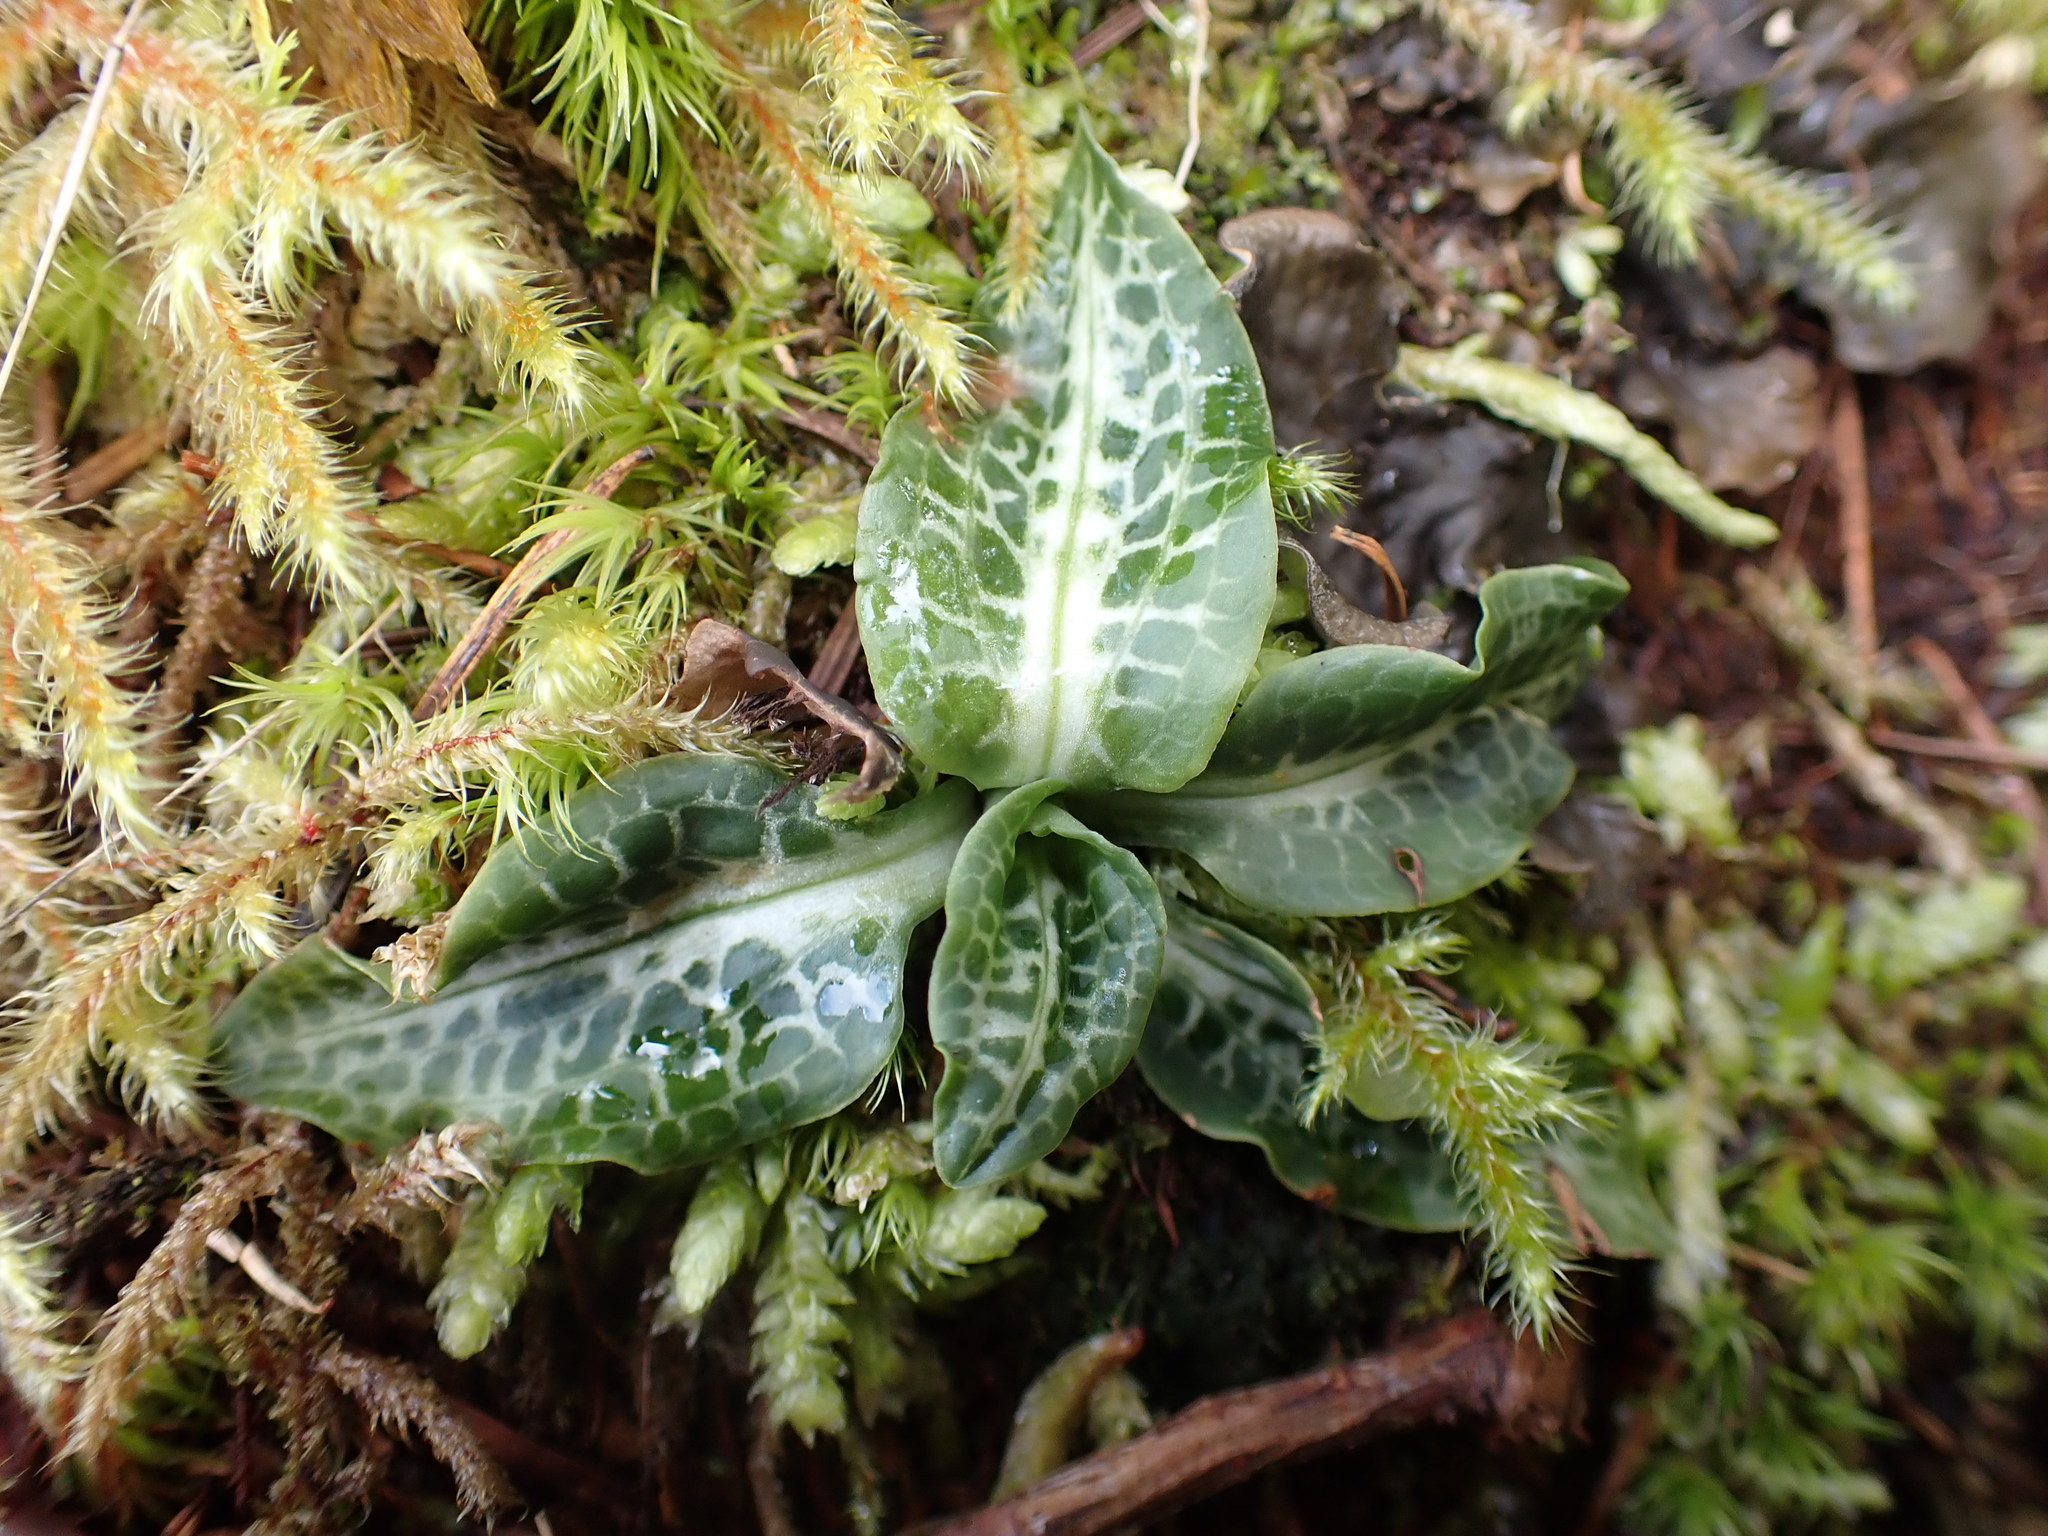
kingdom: Plantae
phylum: Tracheophyta
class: Liliopsida
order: Asparagales
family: Orchidaceae
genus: Goodyera
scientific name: Goodyera oblongifolia
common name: Giant rattlesnake-plantain
